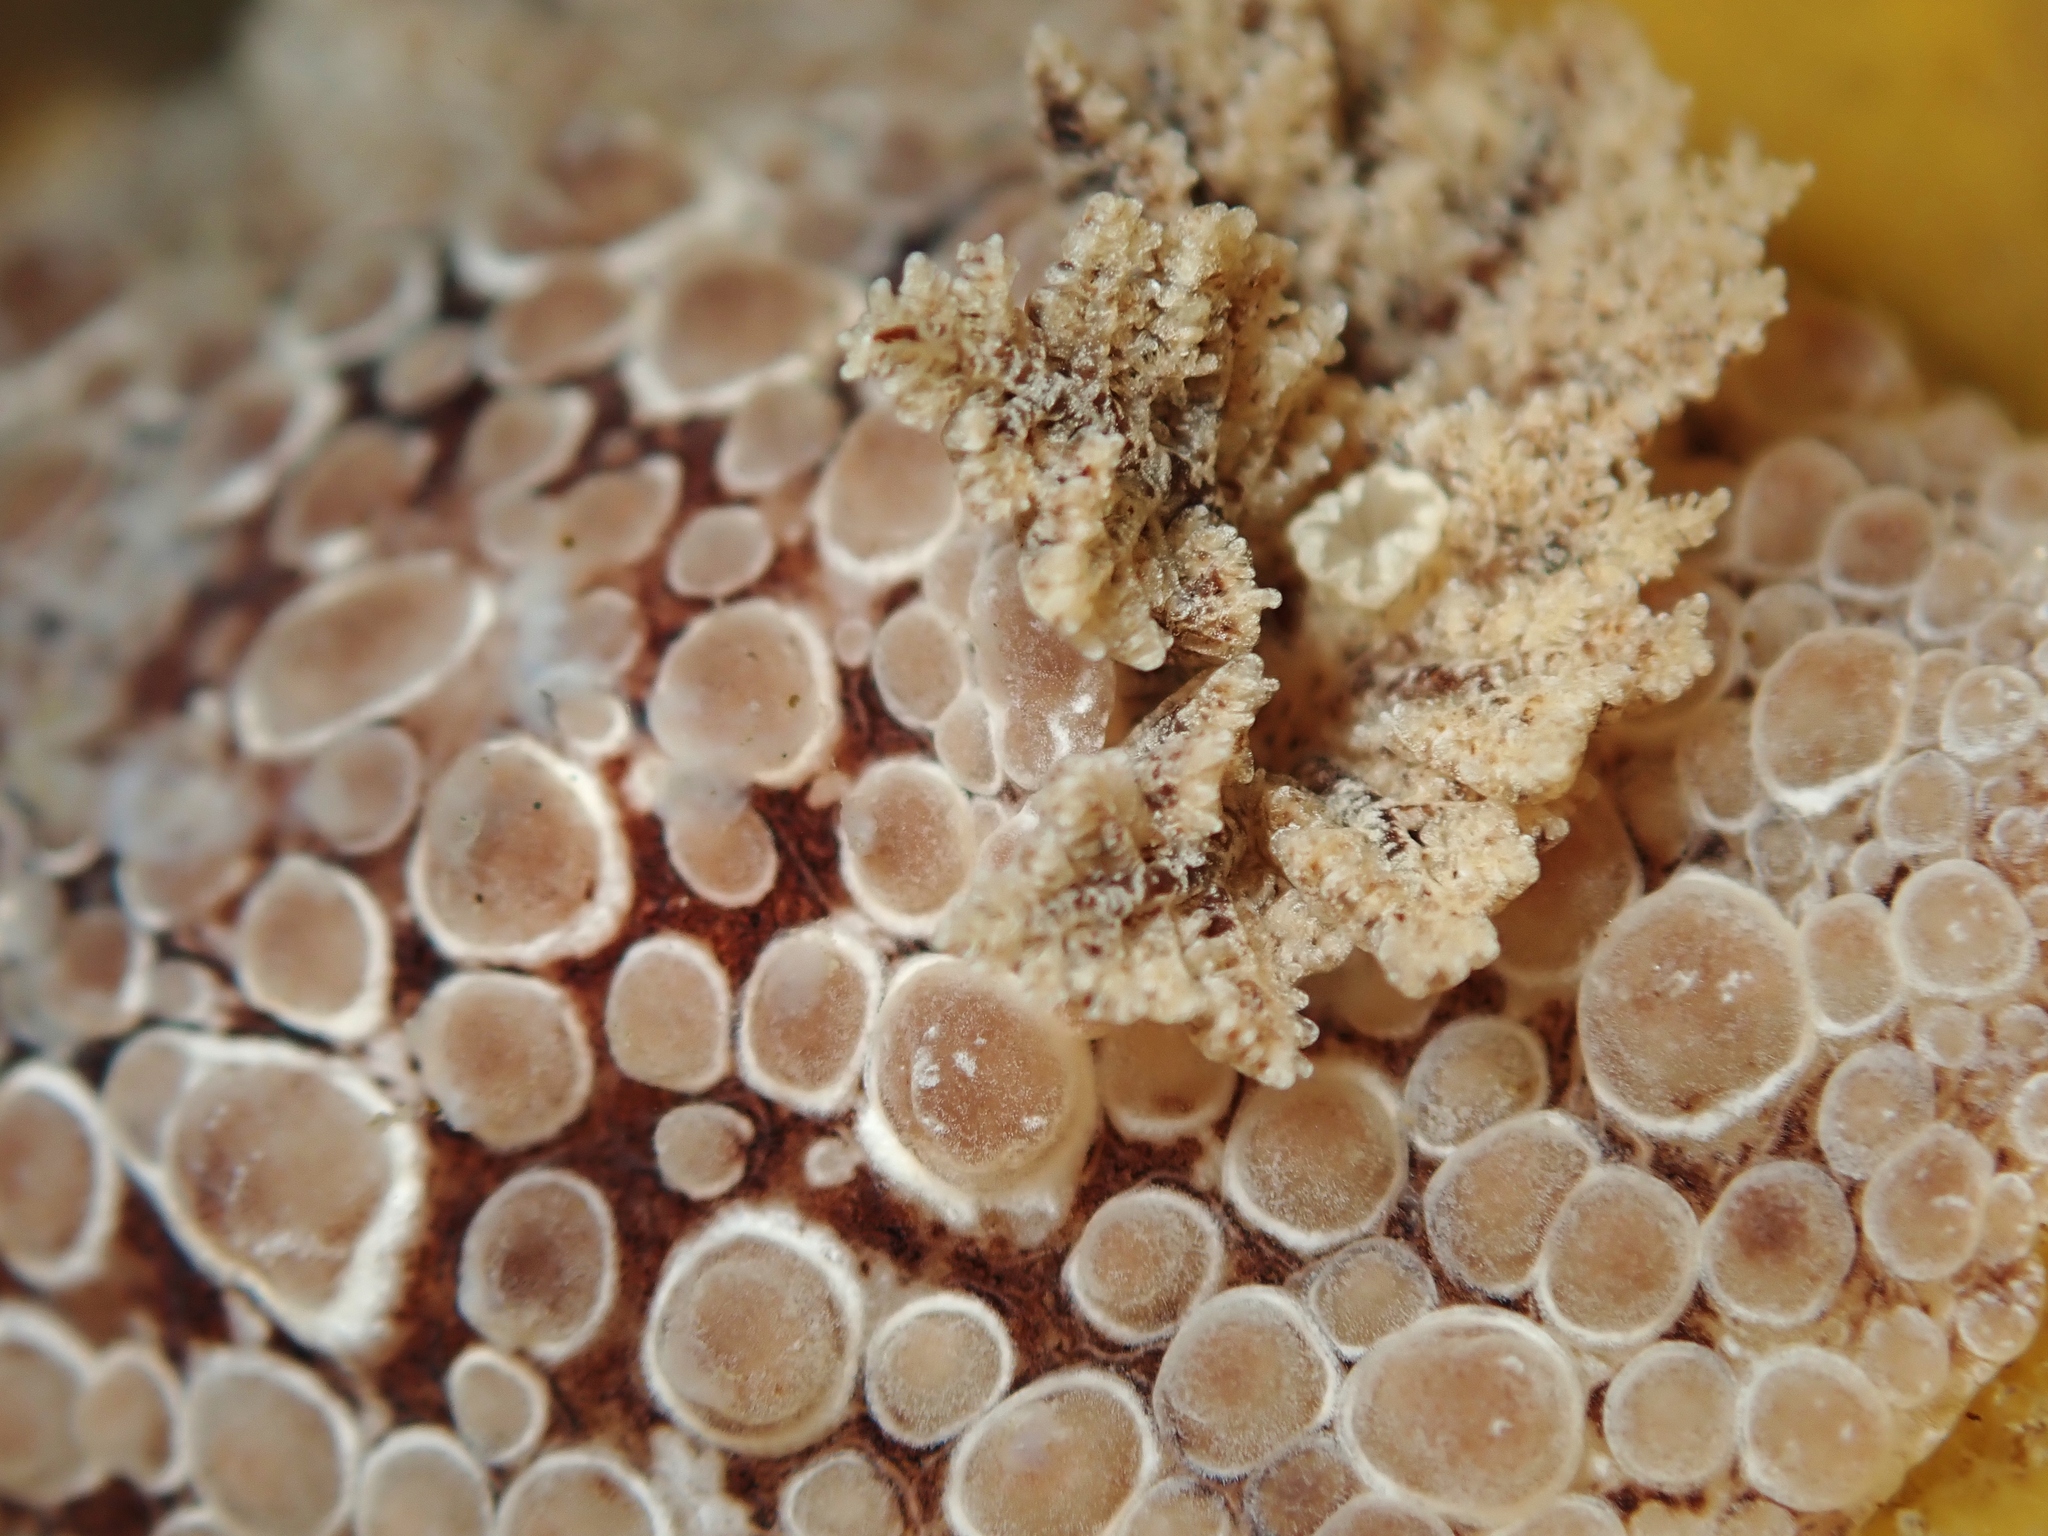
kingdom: Animalia
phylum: Mollusca
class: Gastropoda
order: Nudibranchia
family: Discodorididae
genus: Carminodoris
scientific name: Carminodoris nodulosa
